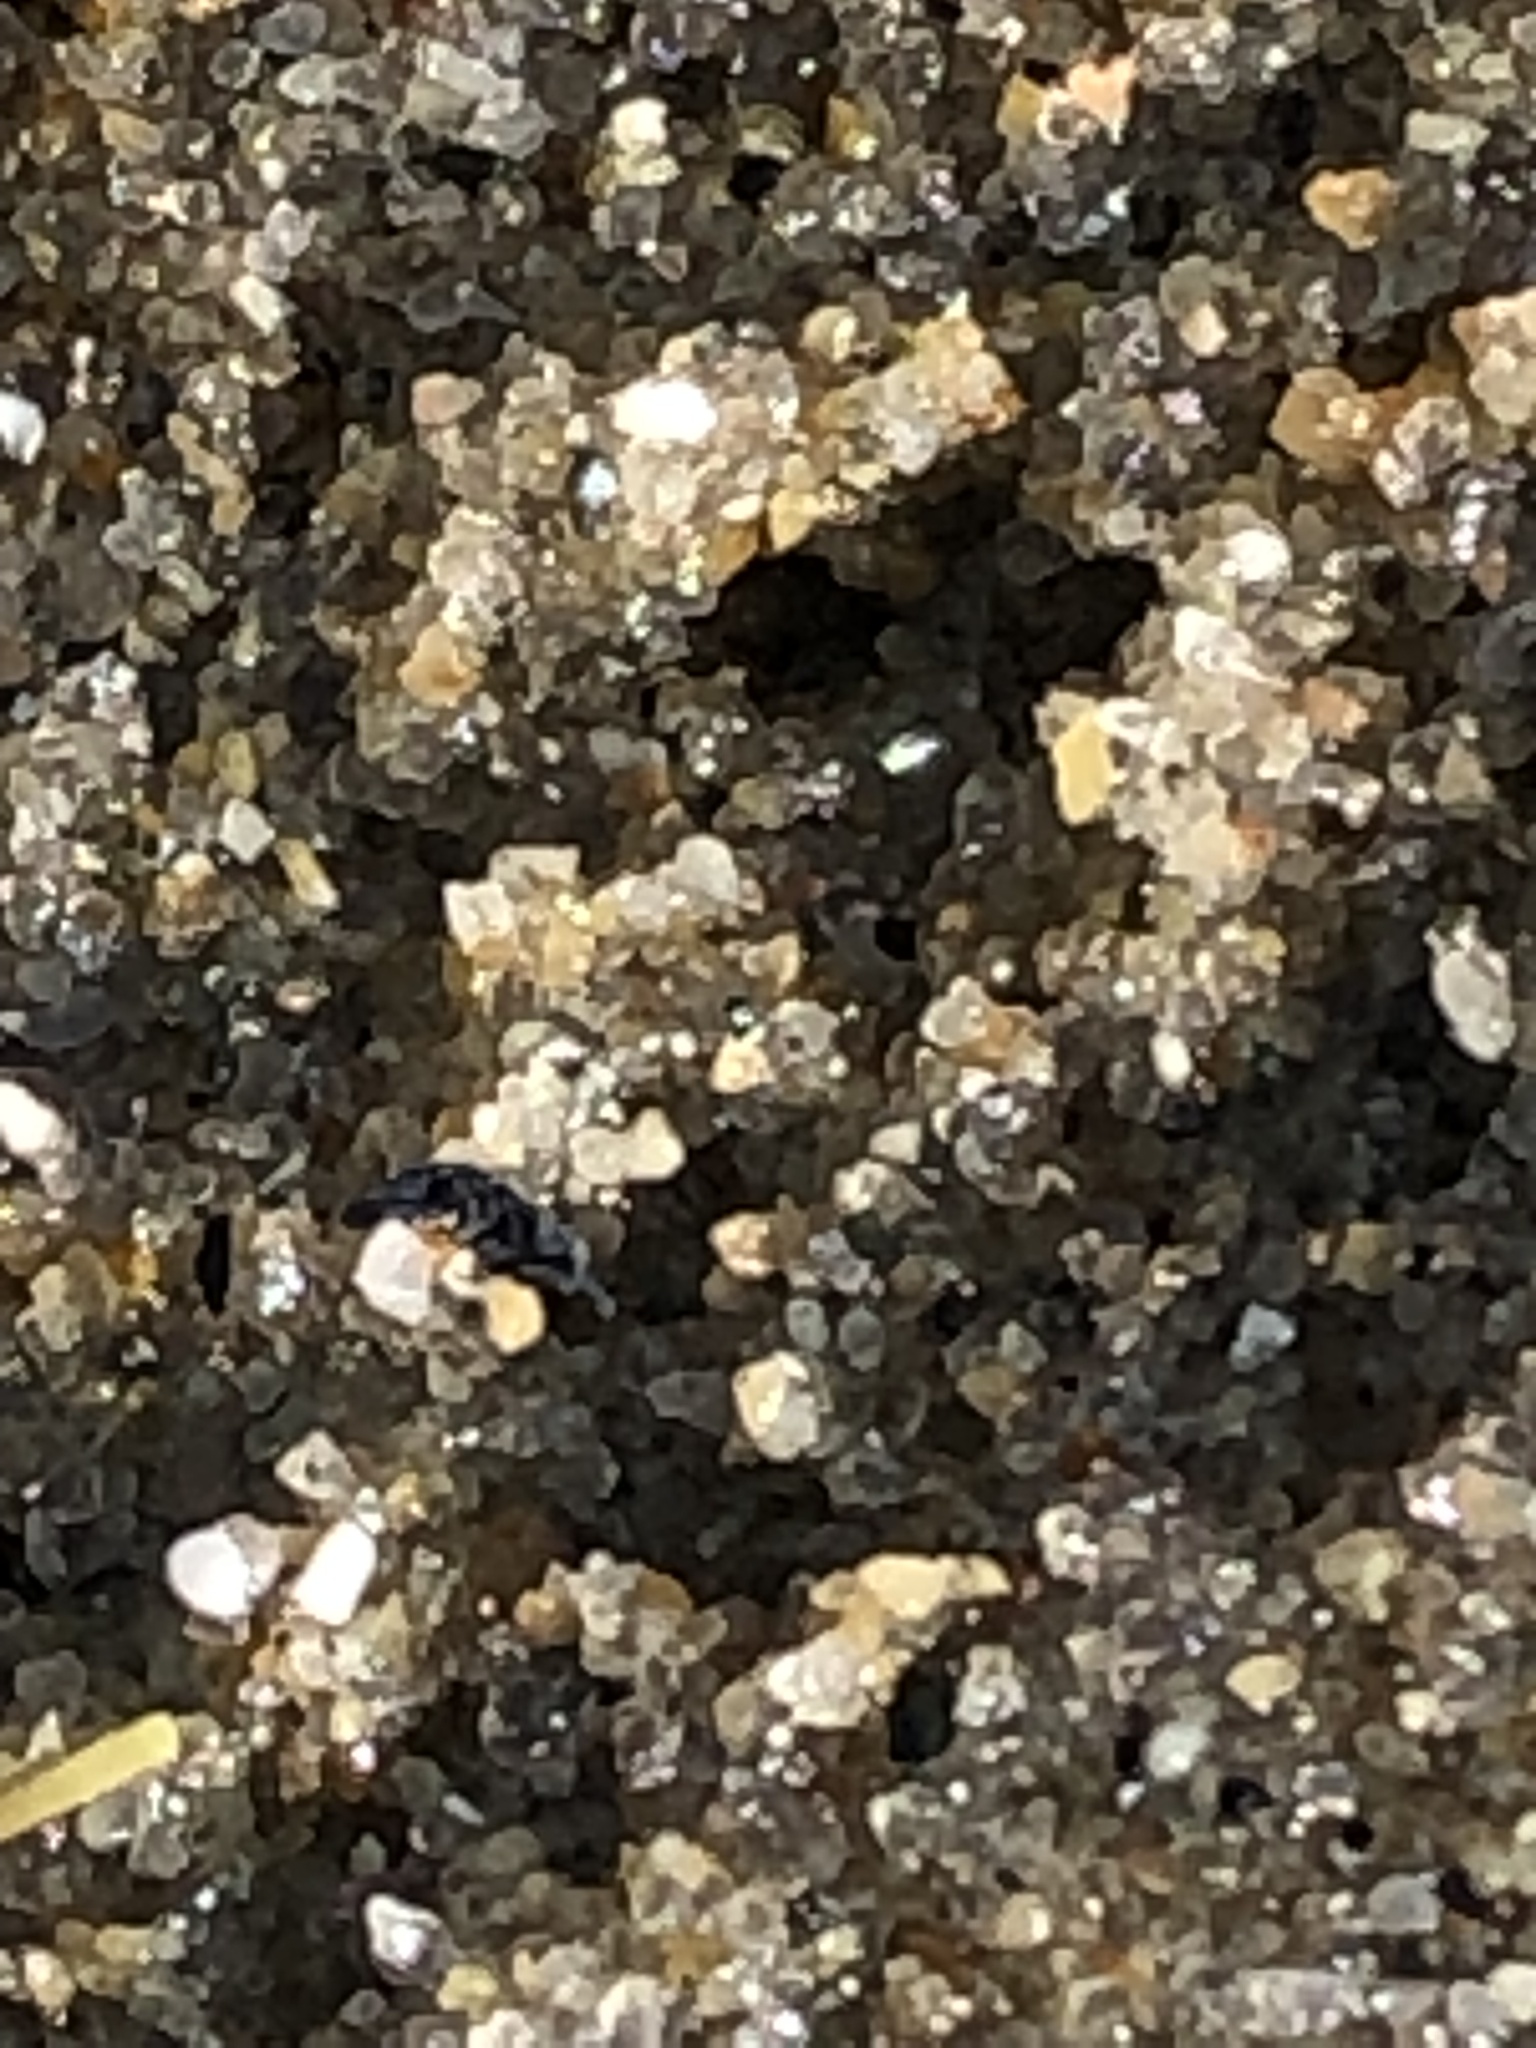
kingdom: Animalia
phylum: Arthropoda
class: Collembola
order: Poduromorpha
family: Neanuridae
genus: Anurida
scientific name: Anurida maritima
